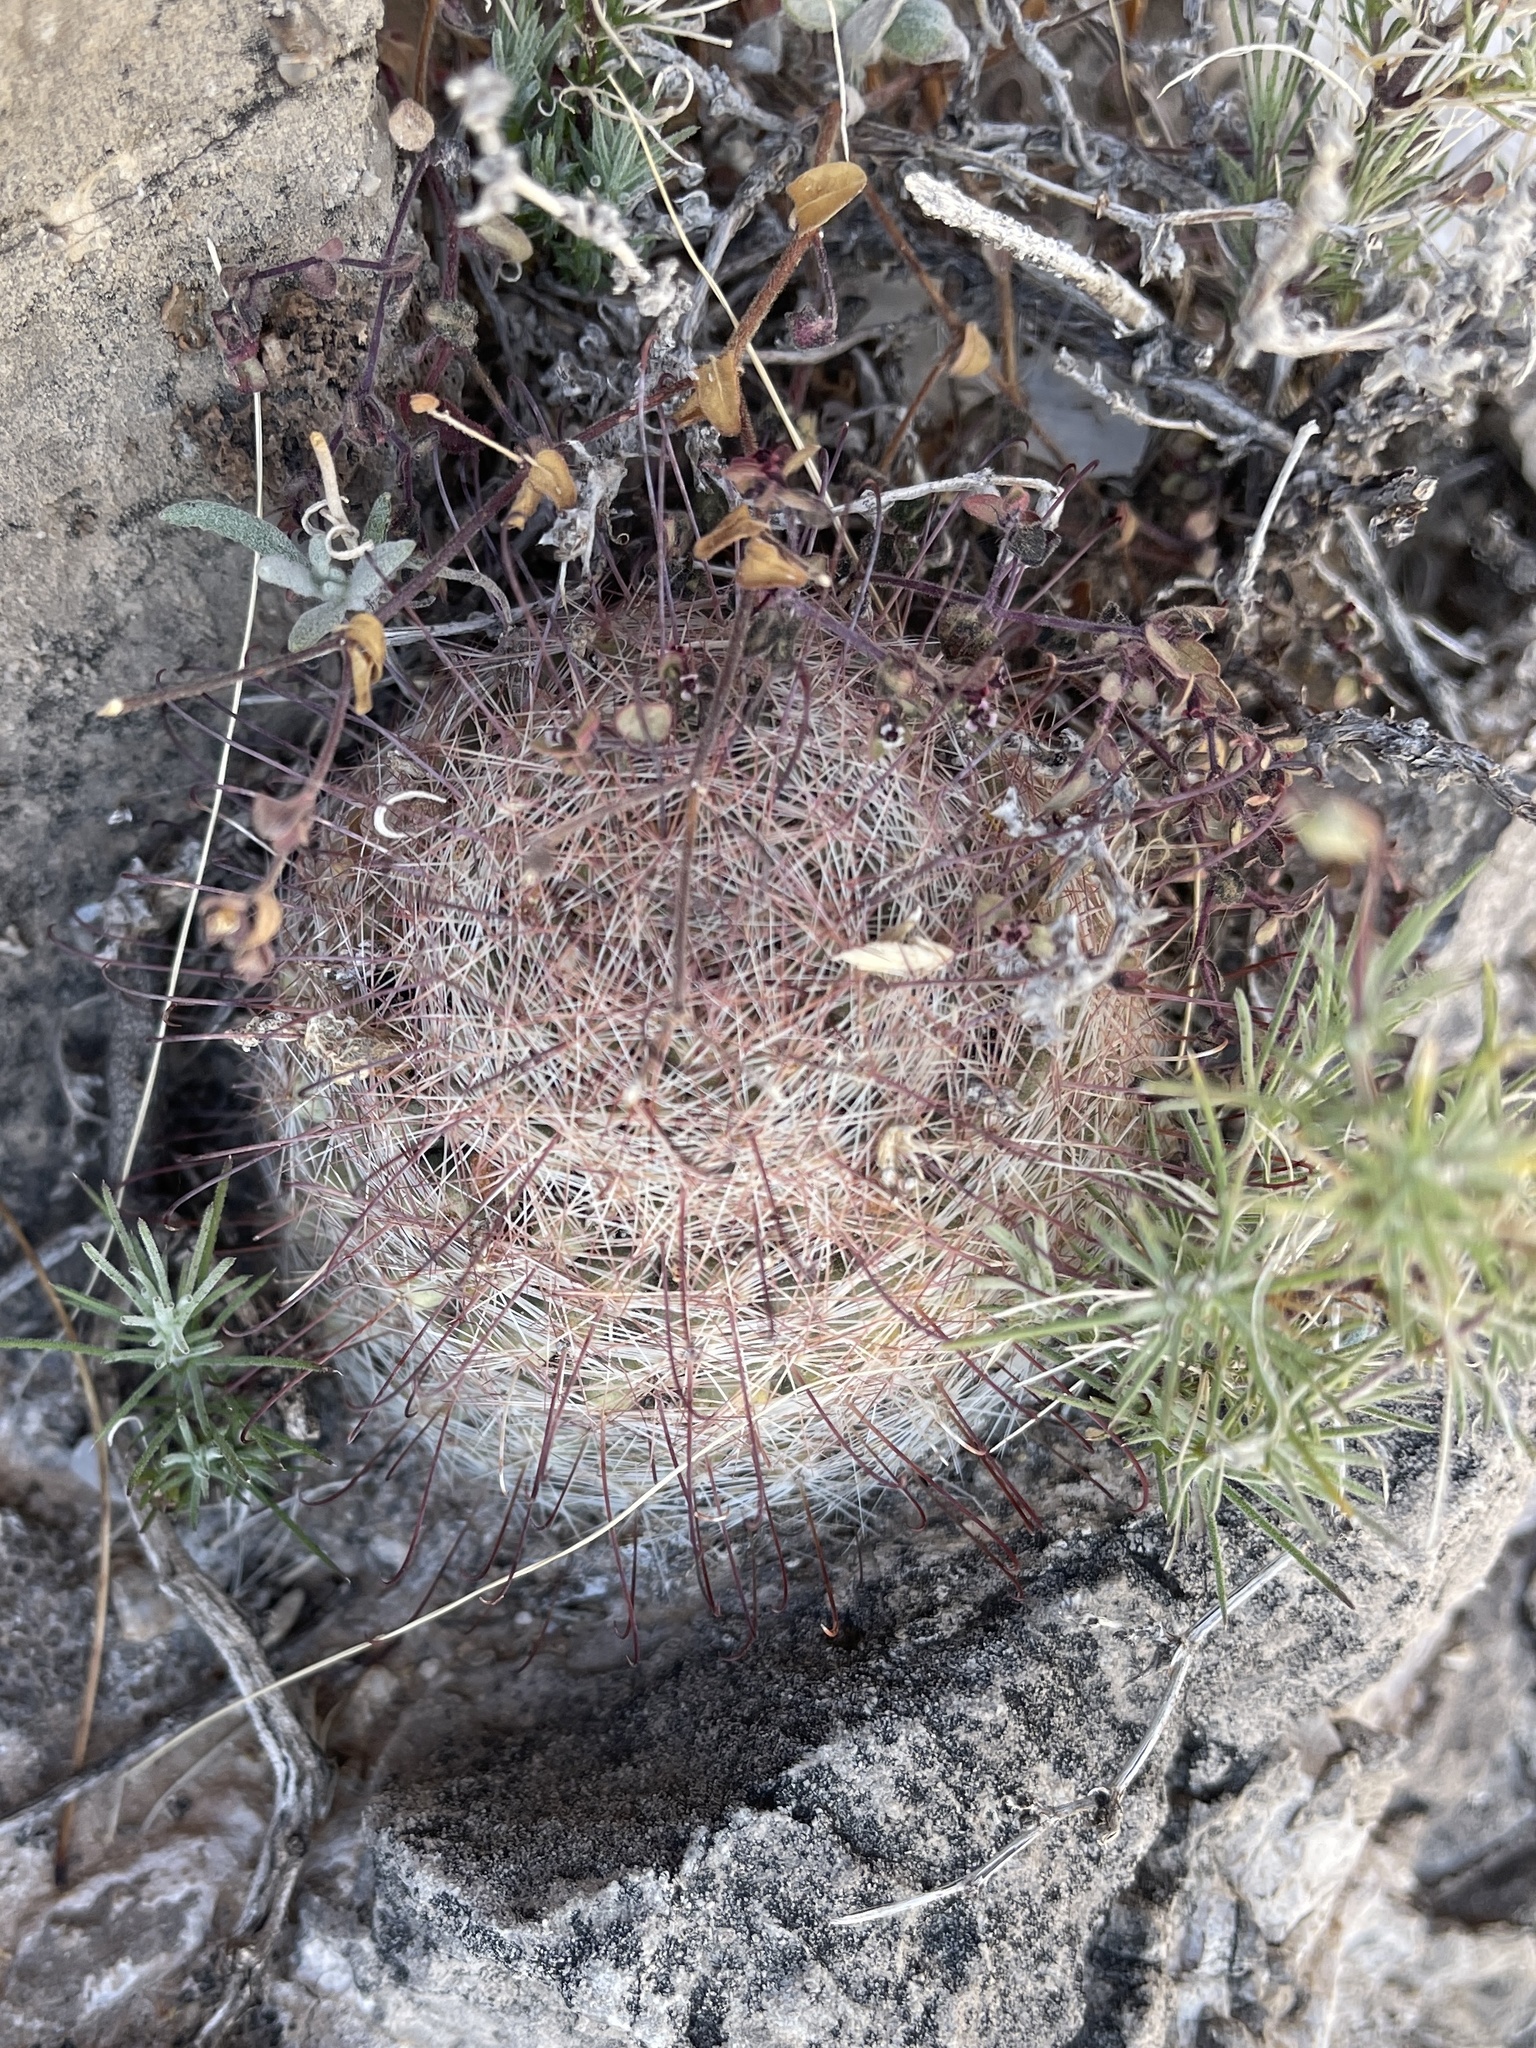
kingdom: Plantae
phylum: Tracheophyta
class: Magnoliopsida
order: Caryophyllales
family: Cactaceae
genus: Cochemiea
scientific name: Cochemiea grahamii
